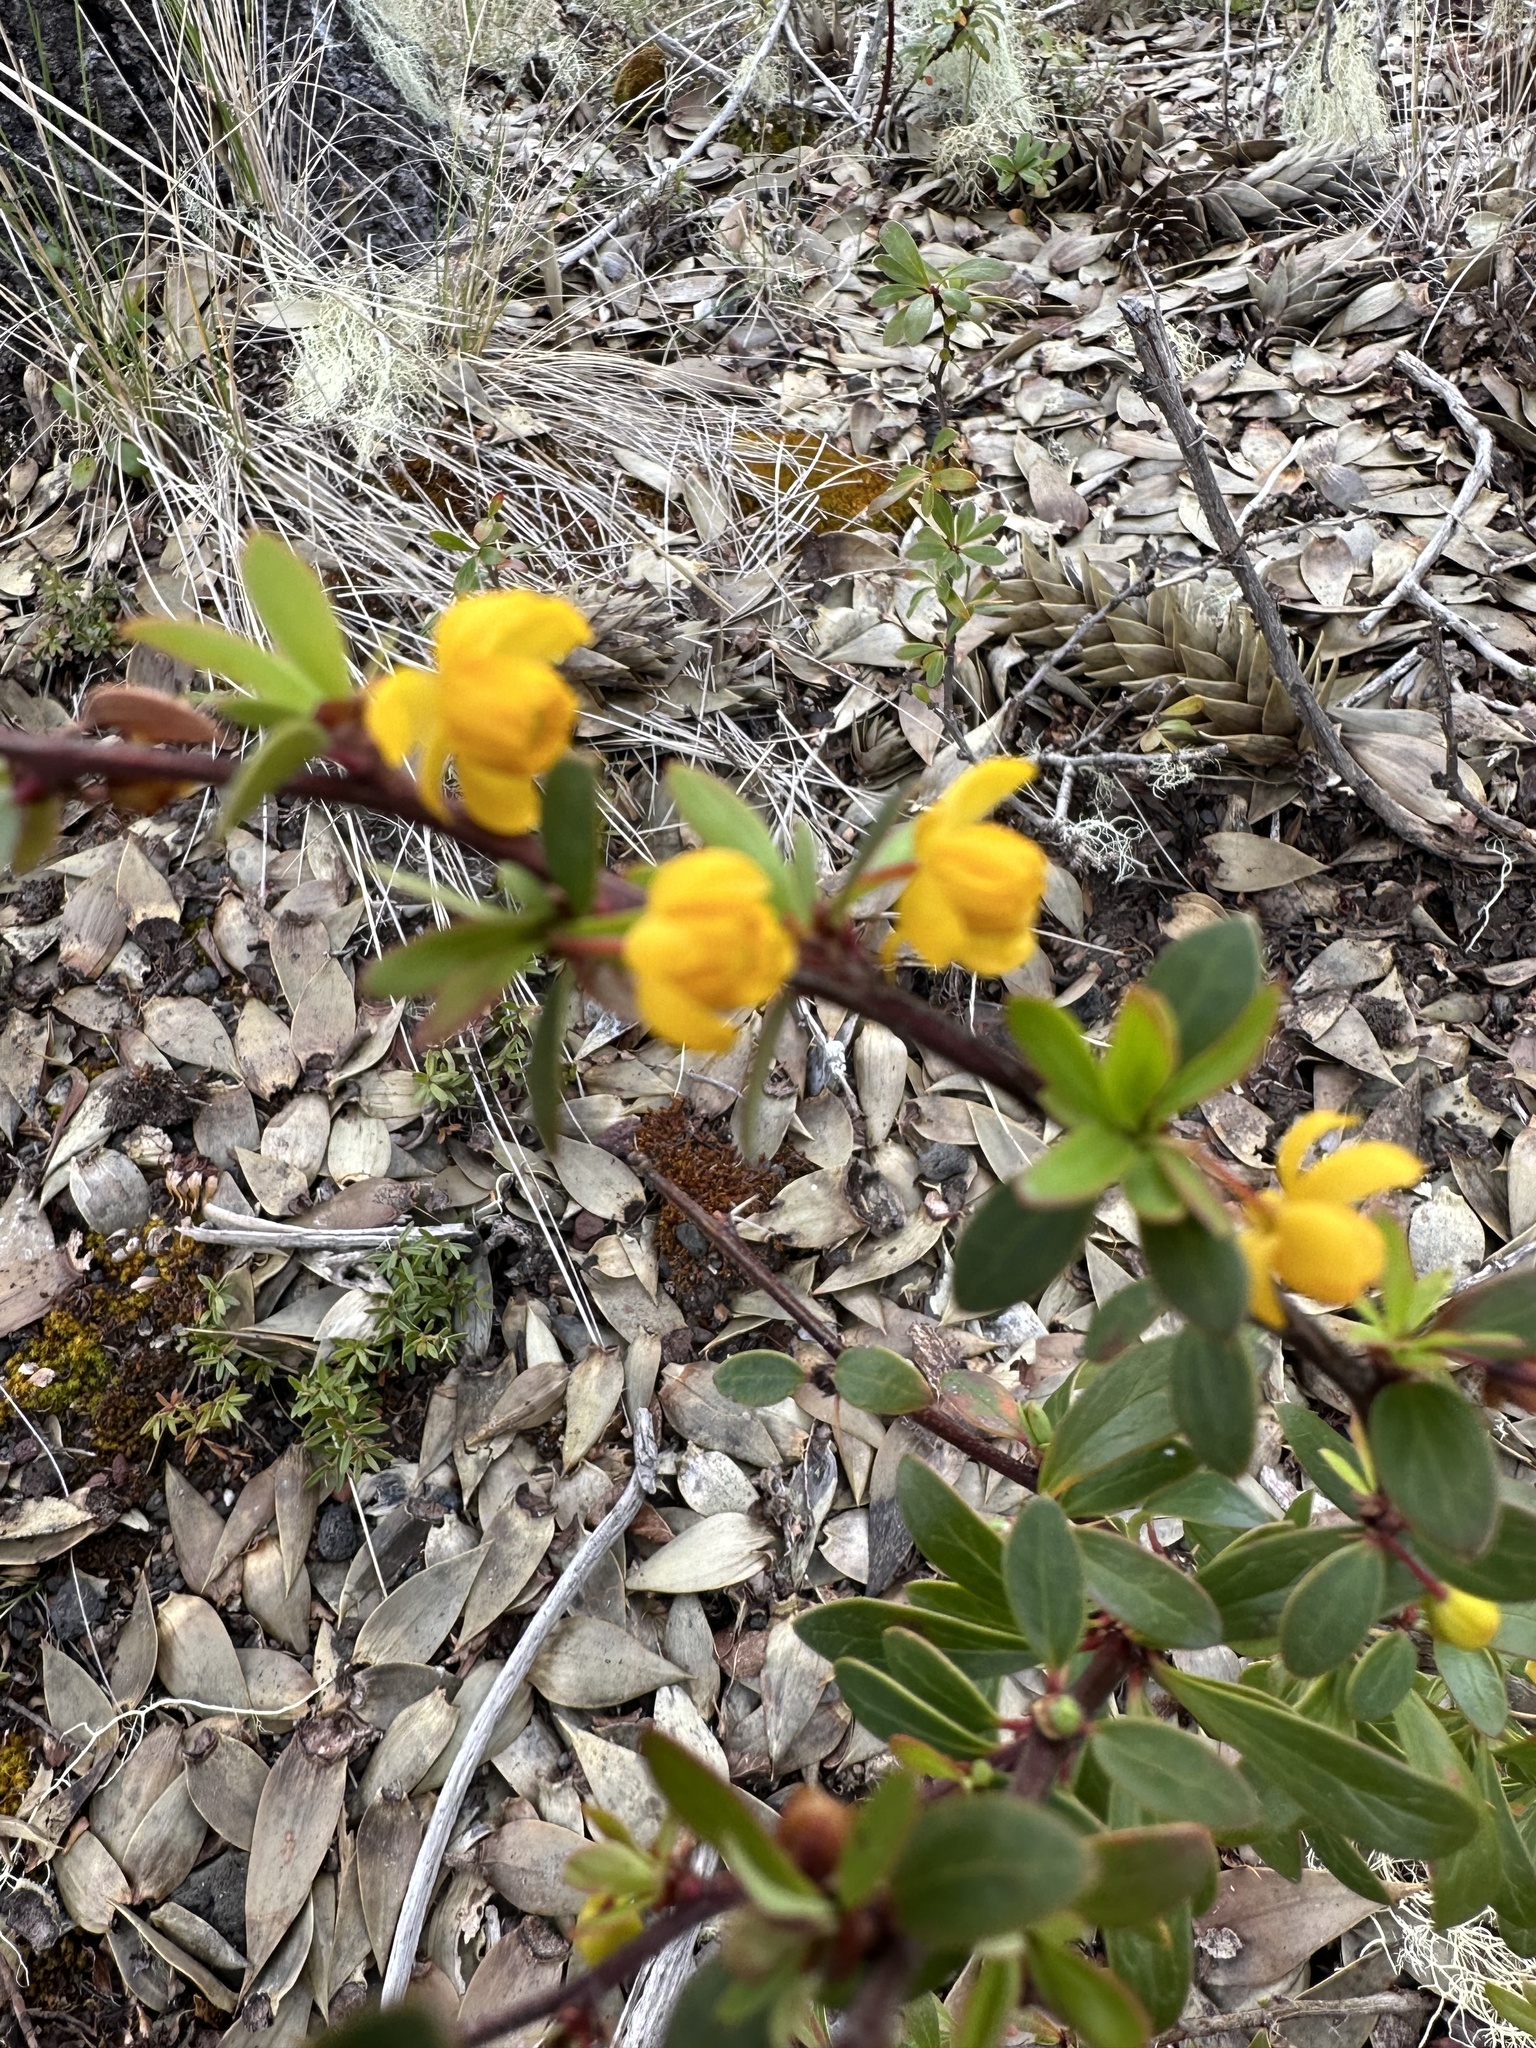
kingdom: Plantae
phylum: Tracheophyta
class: Magnoliopsida
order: Ranunculales
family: Berberidaceae
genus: Berberis
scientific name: Berberis microphylla
